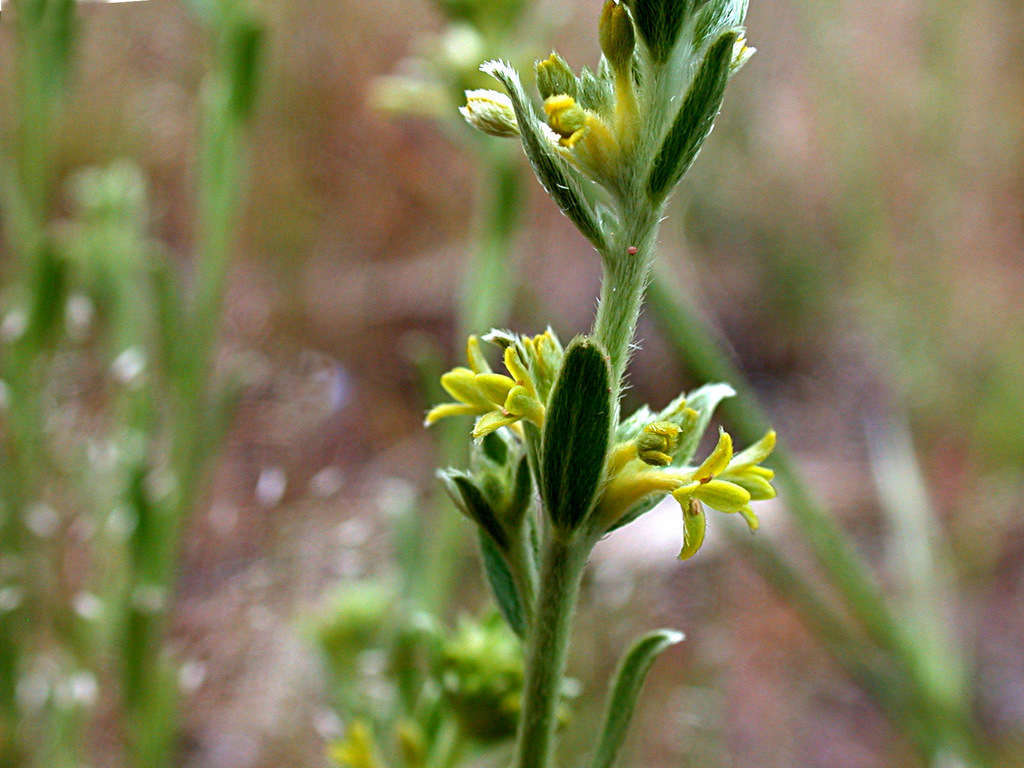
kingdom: Plantae
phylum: Tracheophyta
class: Magnoliopsida
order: Malvales
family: Thymelaeaceae
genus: Pimelea
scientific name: Pimelea curviflora
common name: Curved riceflower
